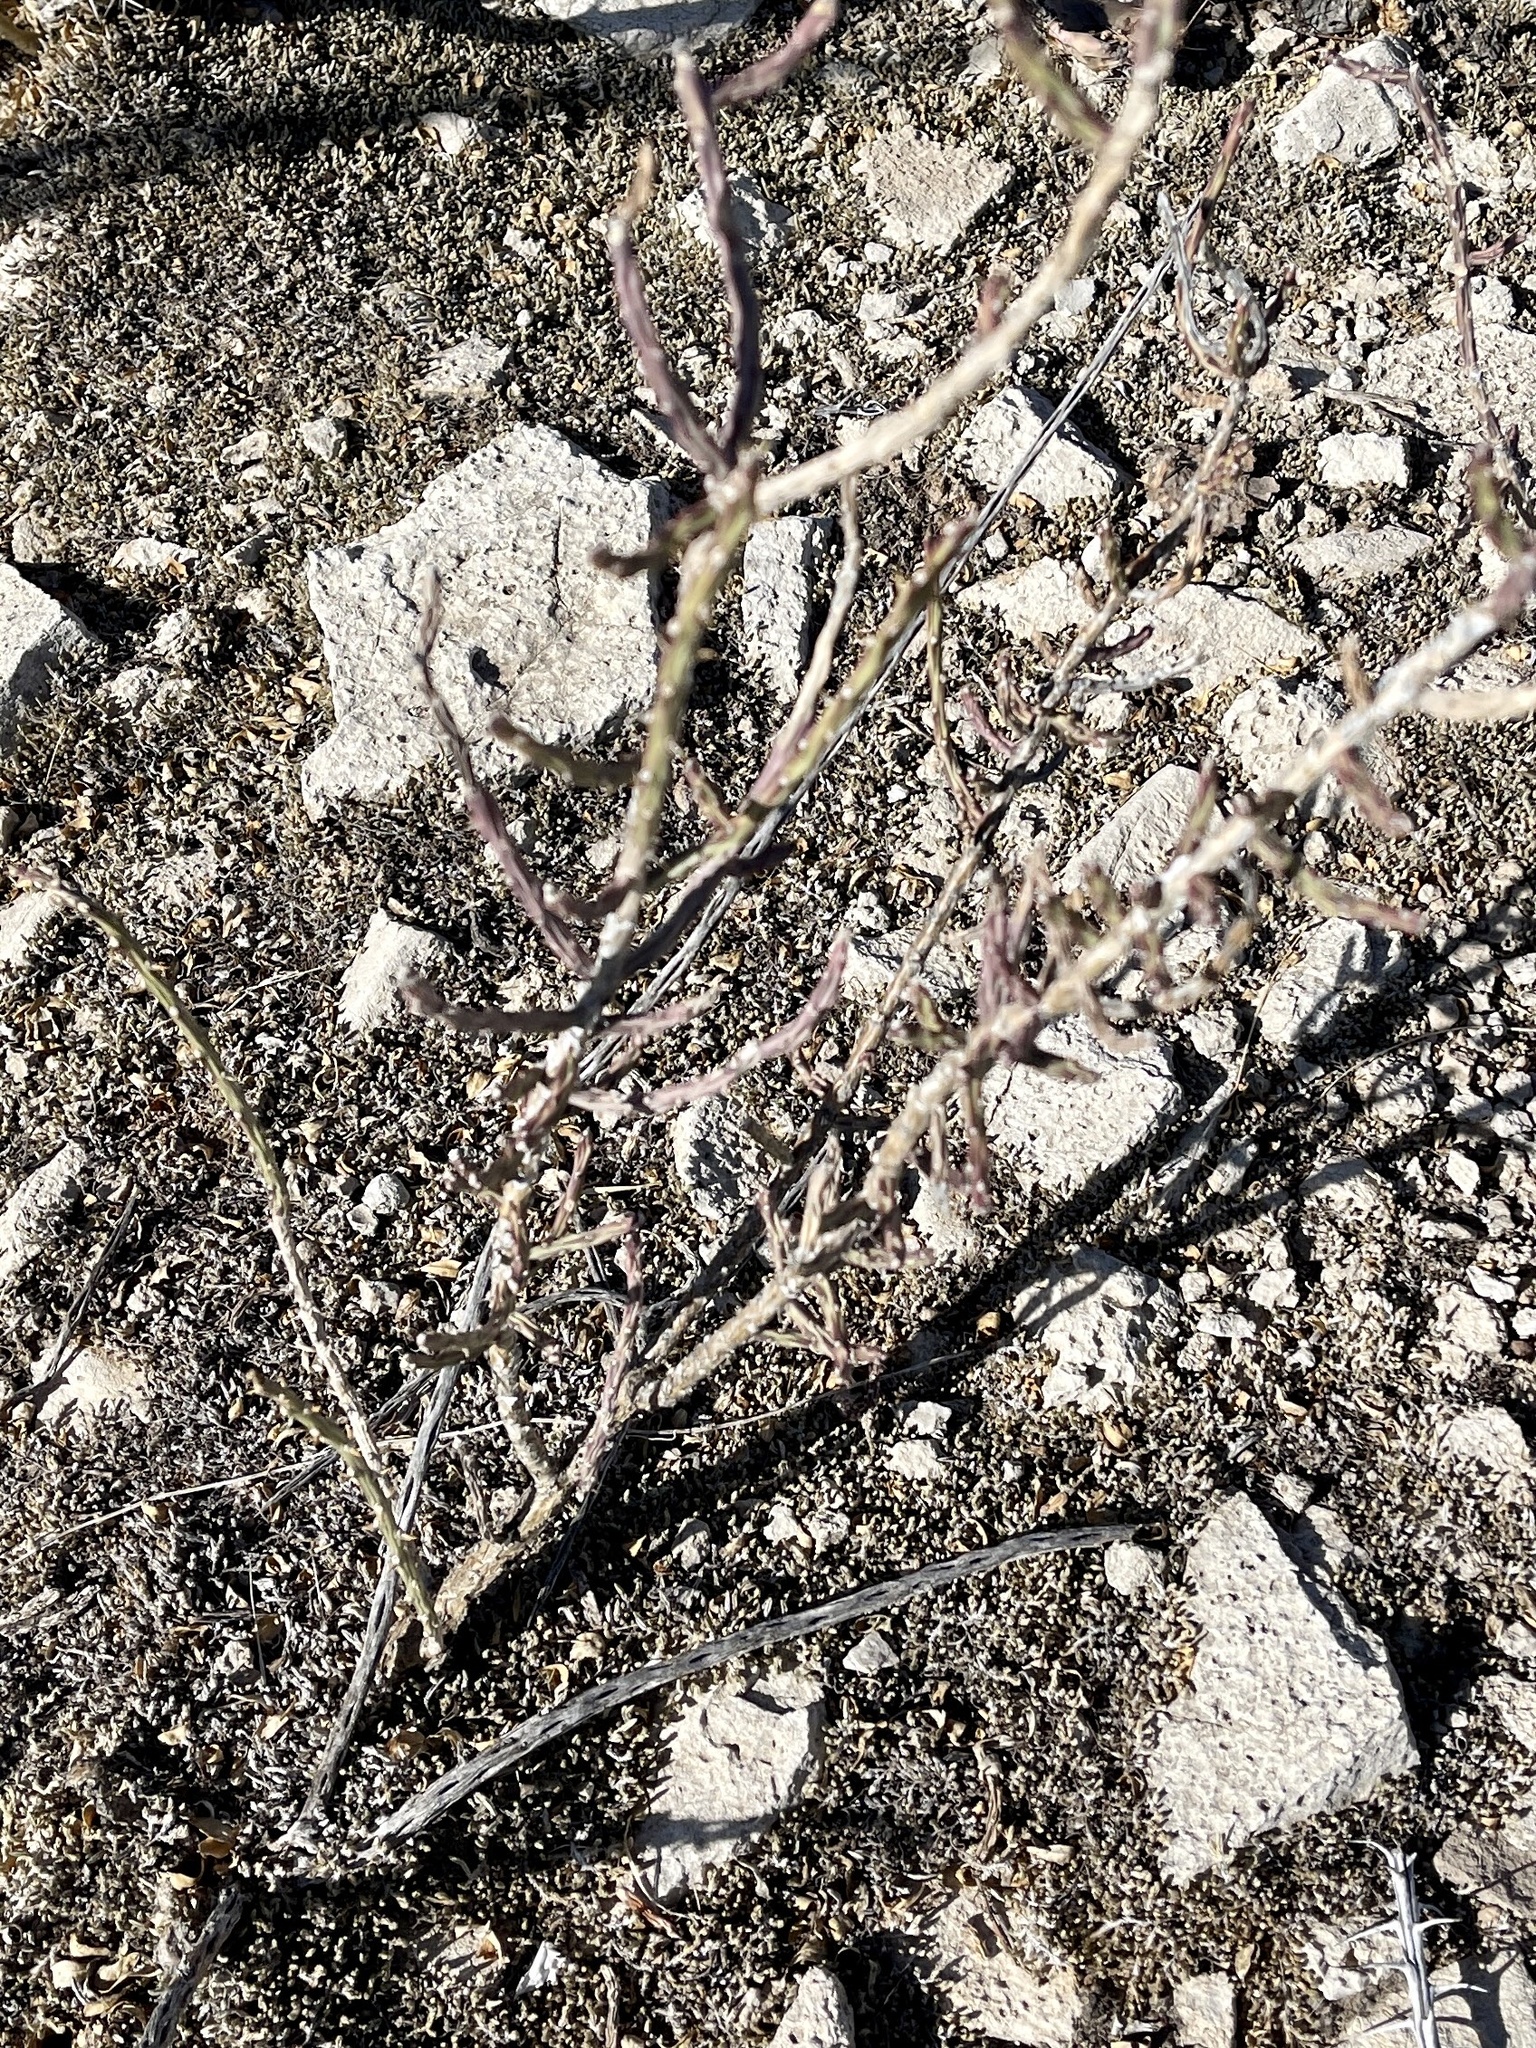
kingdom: Plantae
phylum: Tracheophyta
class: Magnoliopsida
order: Caryophyllales
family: Cactaceae
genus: Cylindropuntia
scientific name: Cylindropuntia leptocaulis
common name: Christmas cactus
